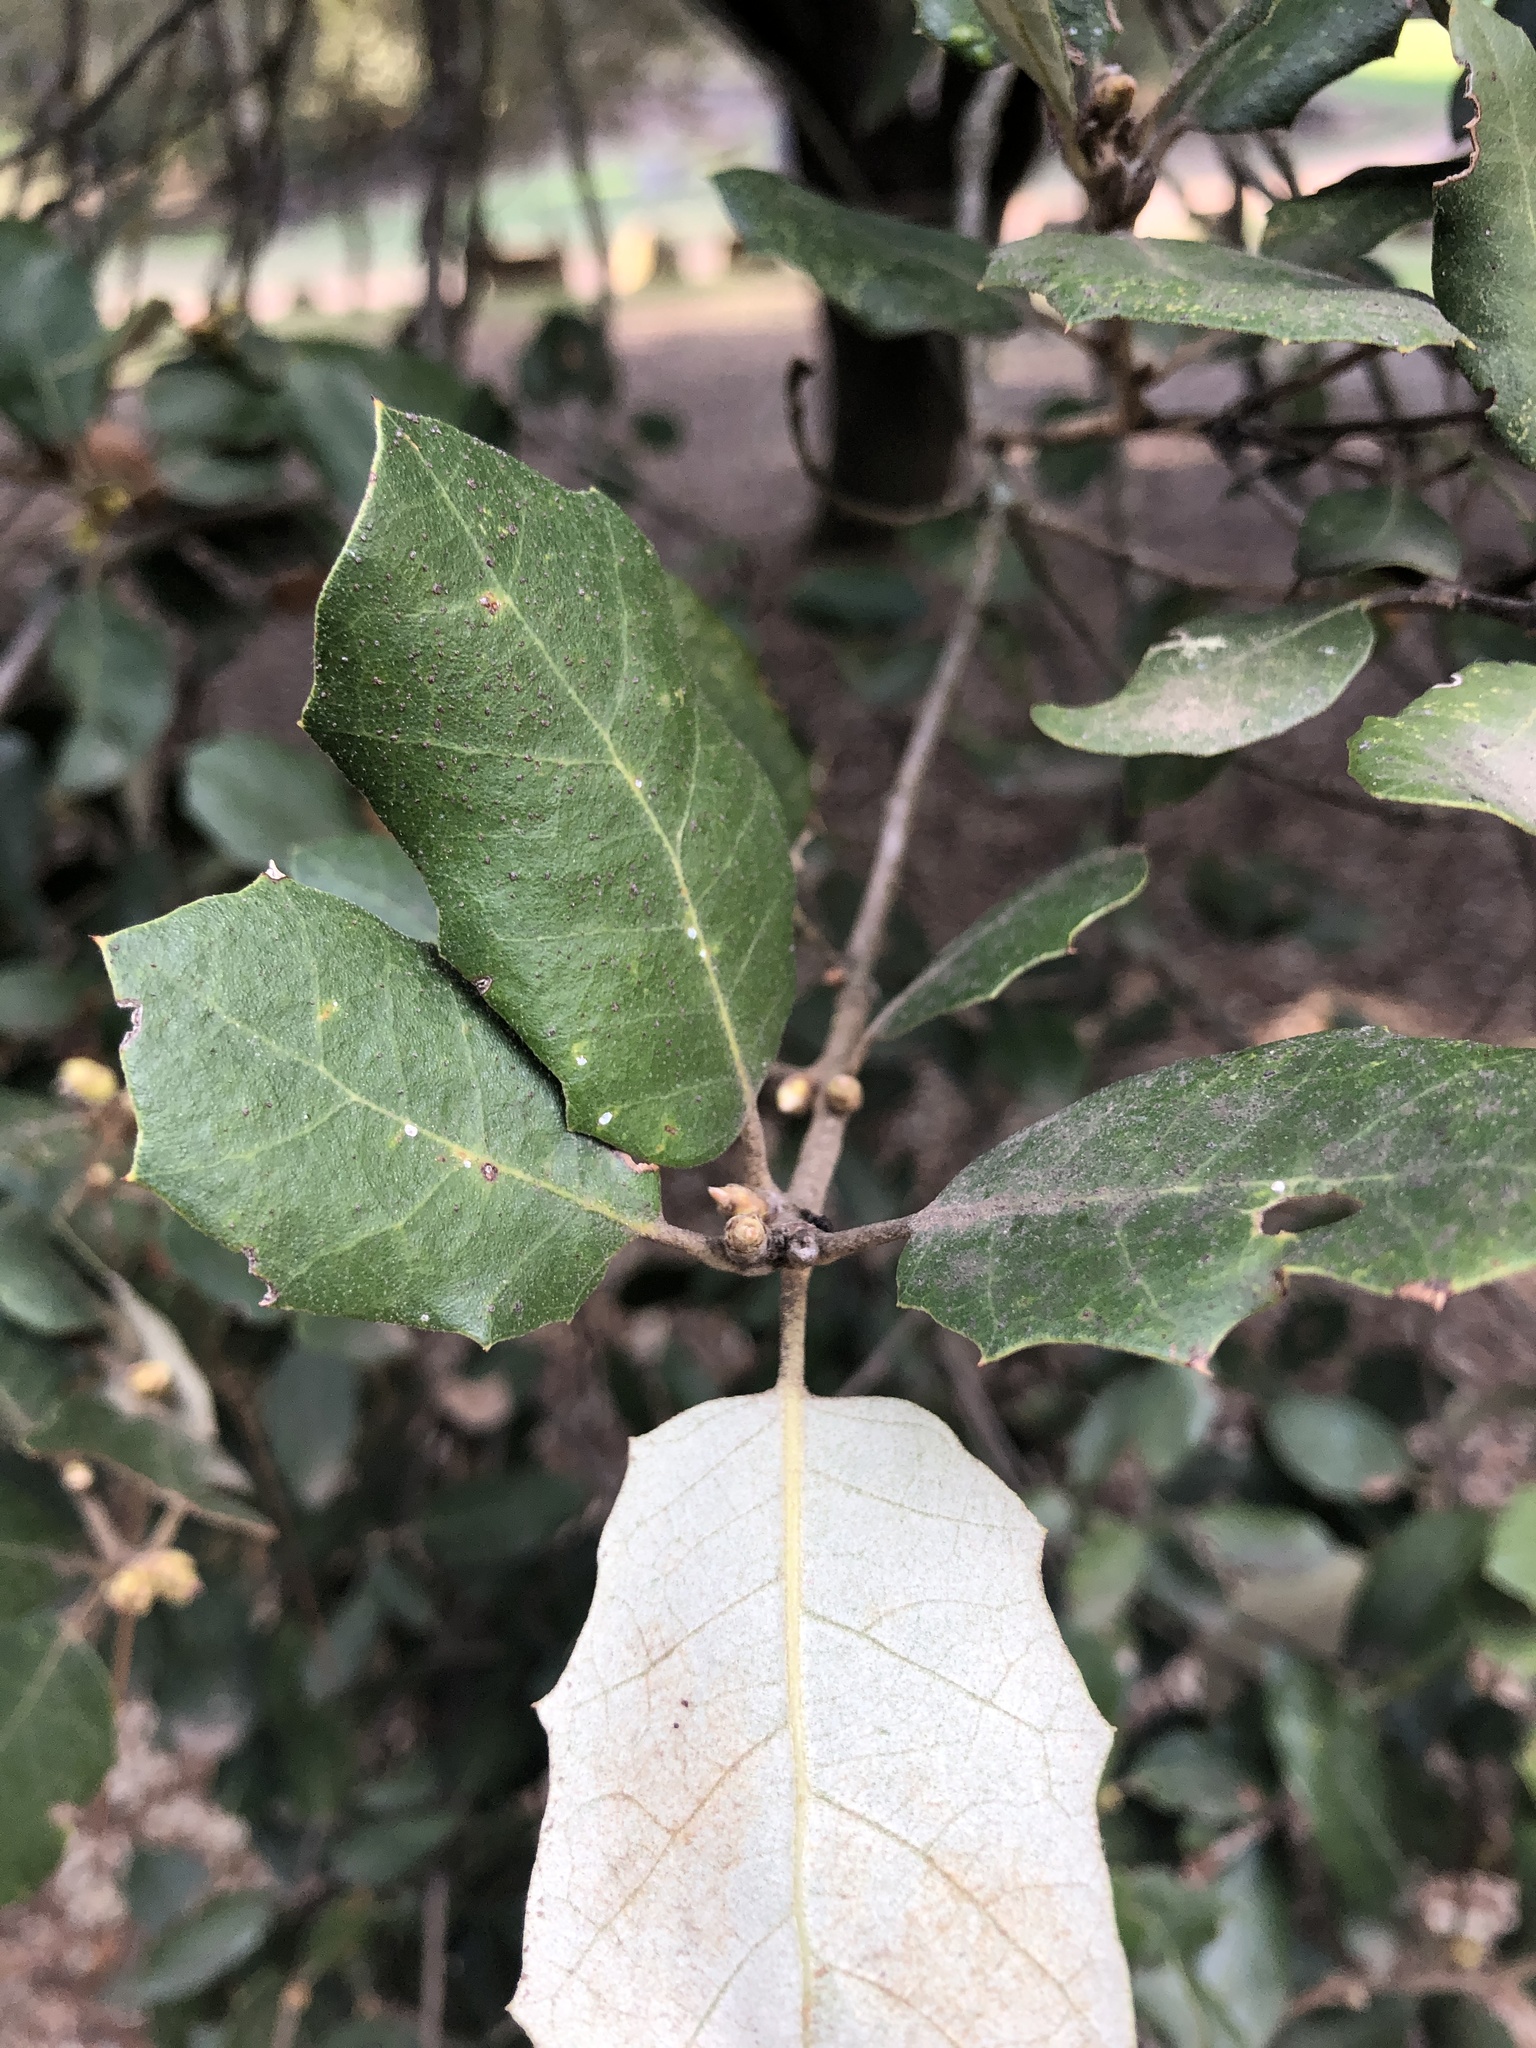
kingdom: Plantae
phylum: Tracheophyta
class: Magnoliopsida
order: Fagales
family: Fagaceae
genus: Quercus
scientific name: Quercus ilex
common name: Evergreen oak
